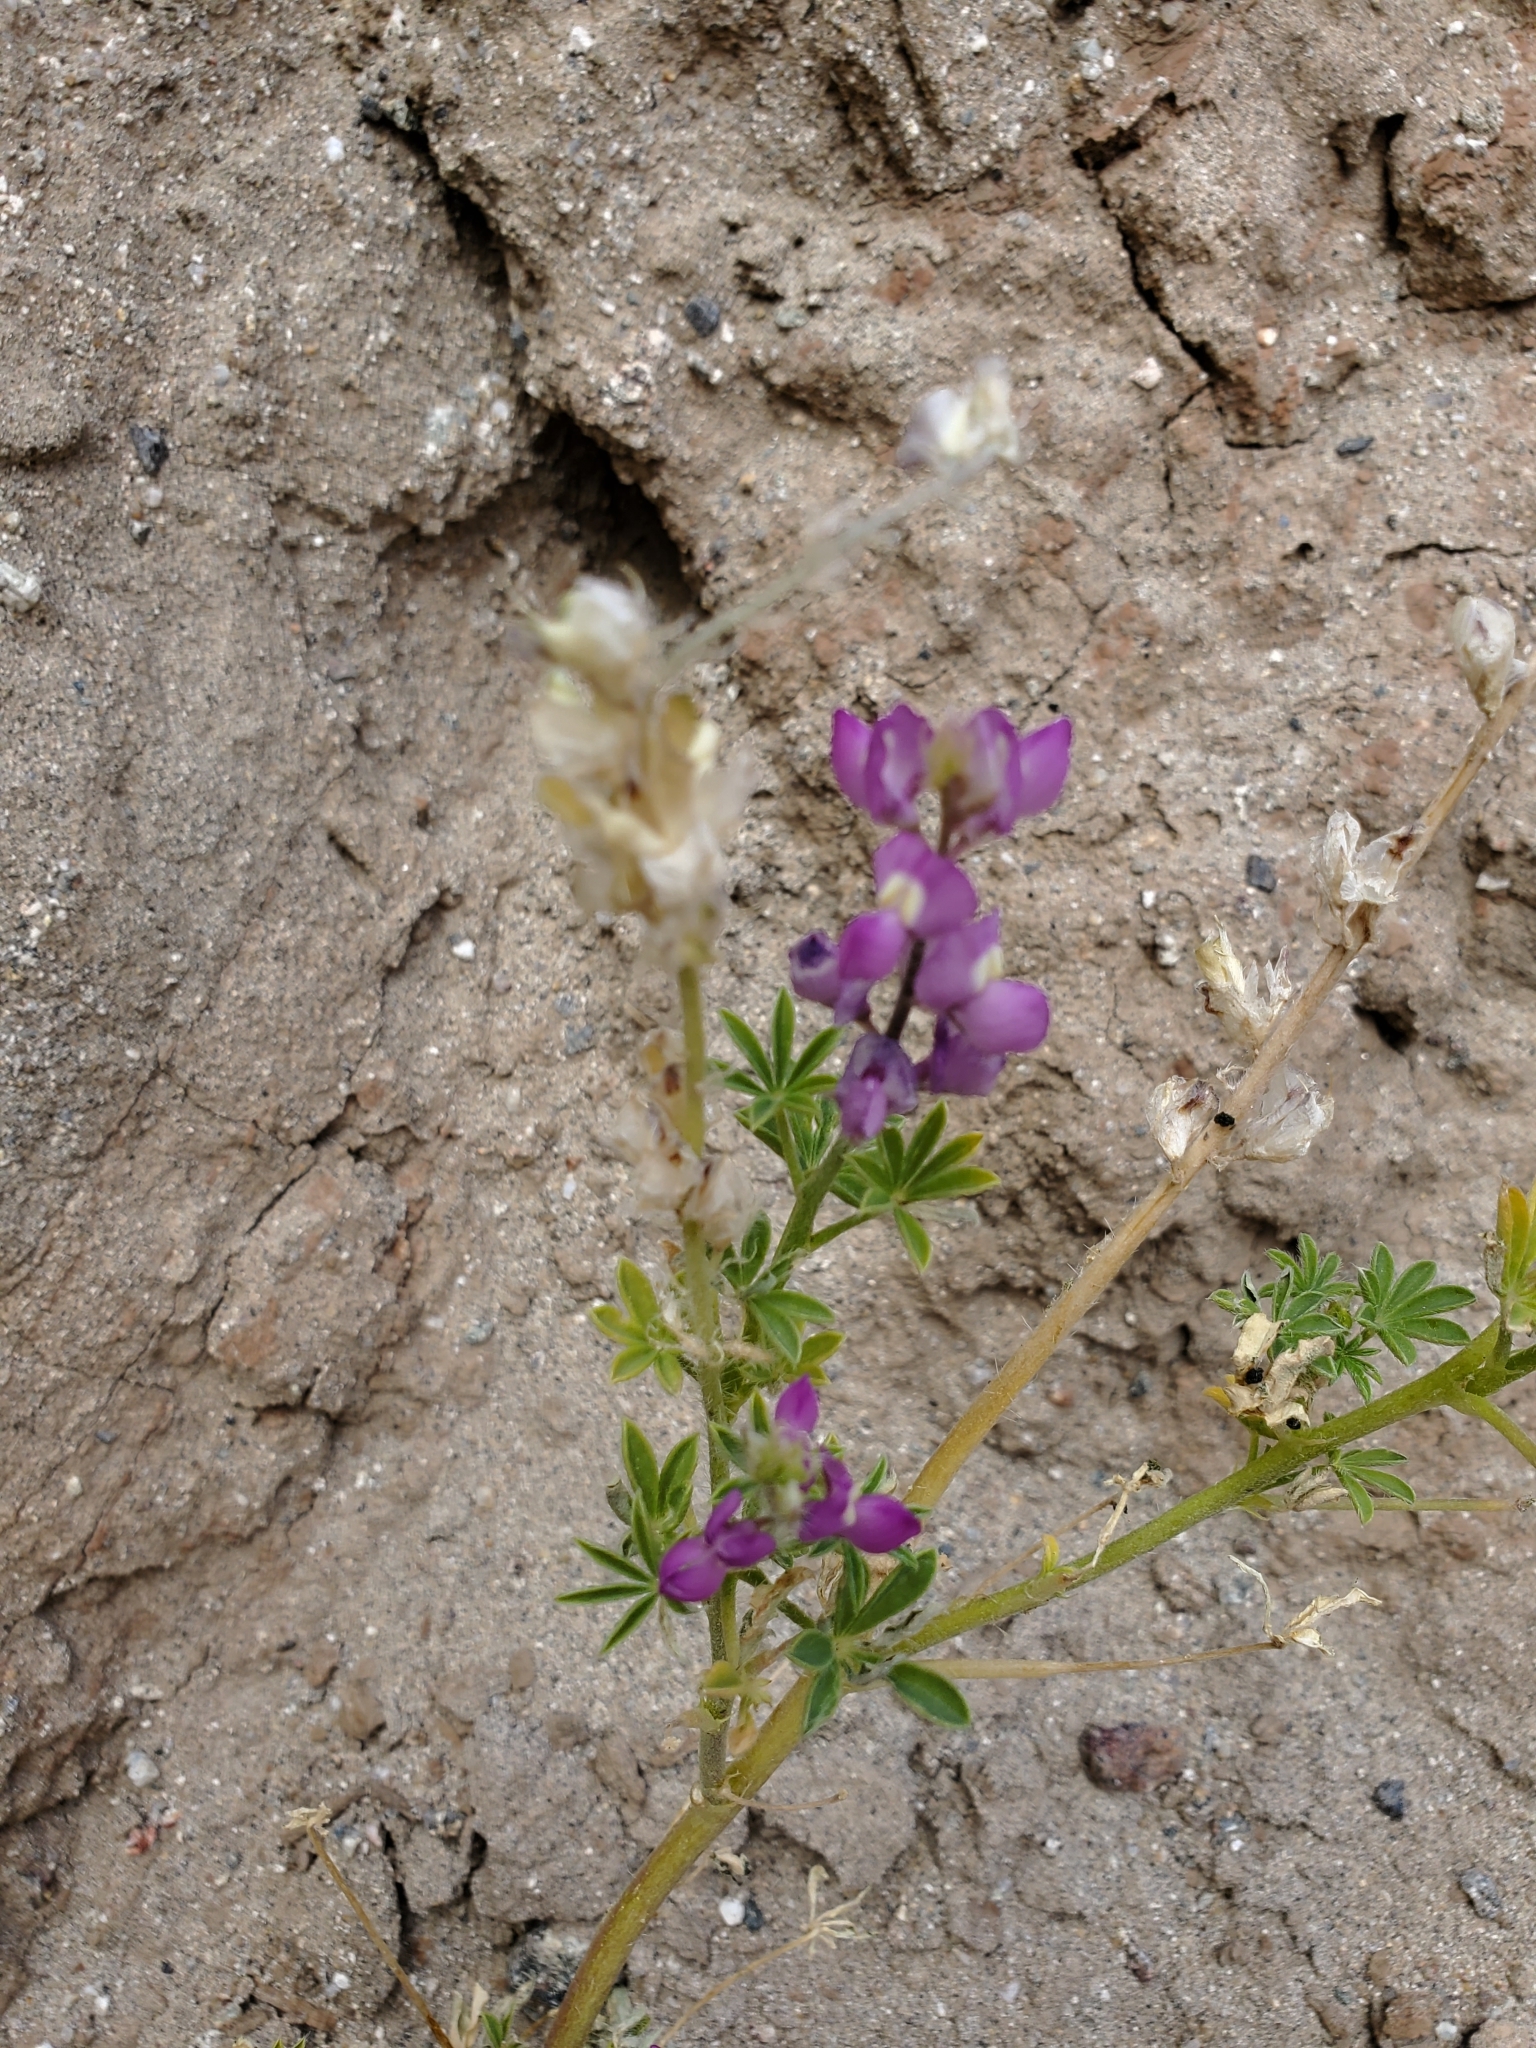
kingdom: Plantae
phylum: Tracheophyta
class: Magnoliopsida
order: Fabales
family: Fabaceae
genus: Lupinus
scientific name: Lupinus arizonicus
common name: Arizona lupine
